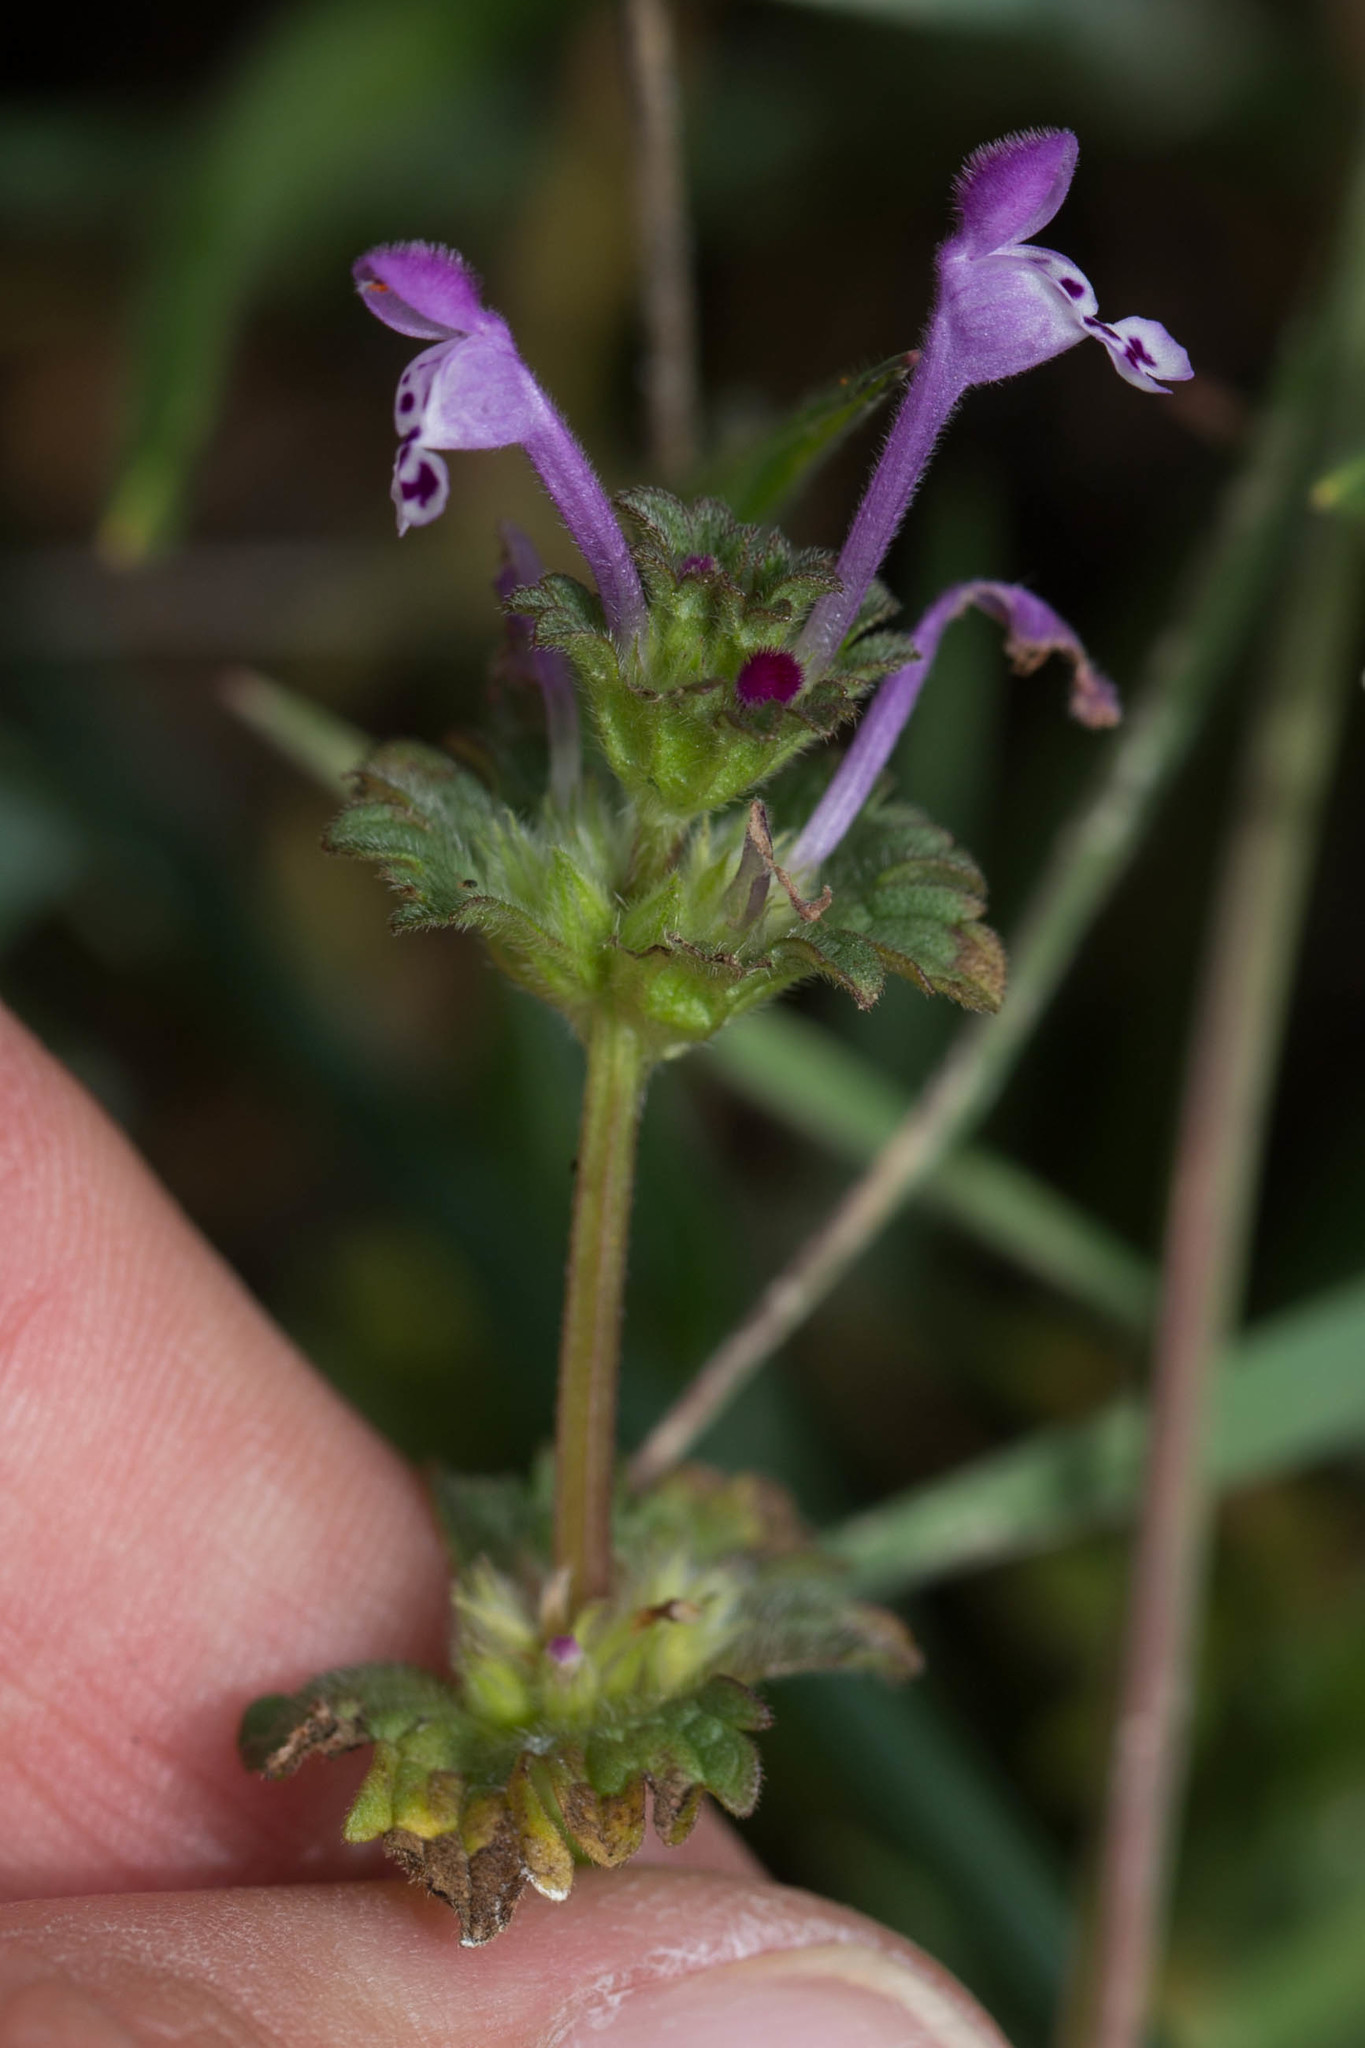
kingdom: Plantae
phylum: Tracheophyta
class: Magnoliopsida
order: Lamiales
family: Lamiaceae
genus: Lamium
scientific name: Lamium amplexicaule
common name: Henbit dead-nettle
